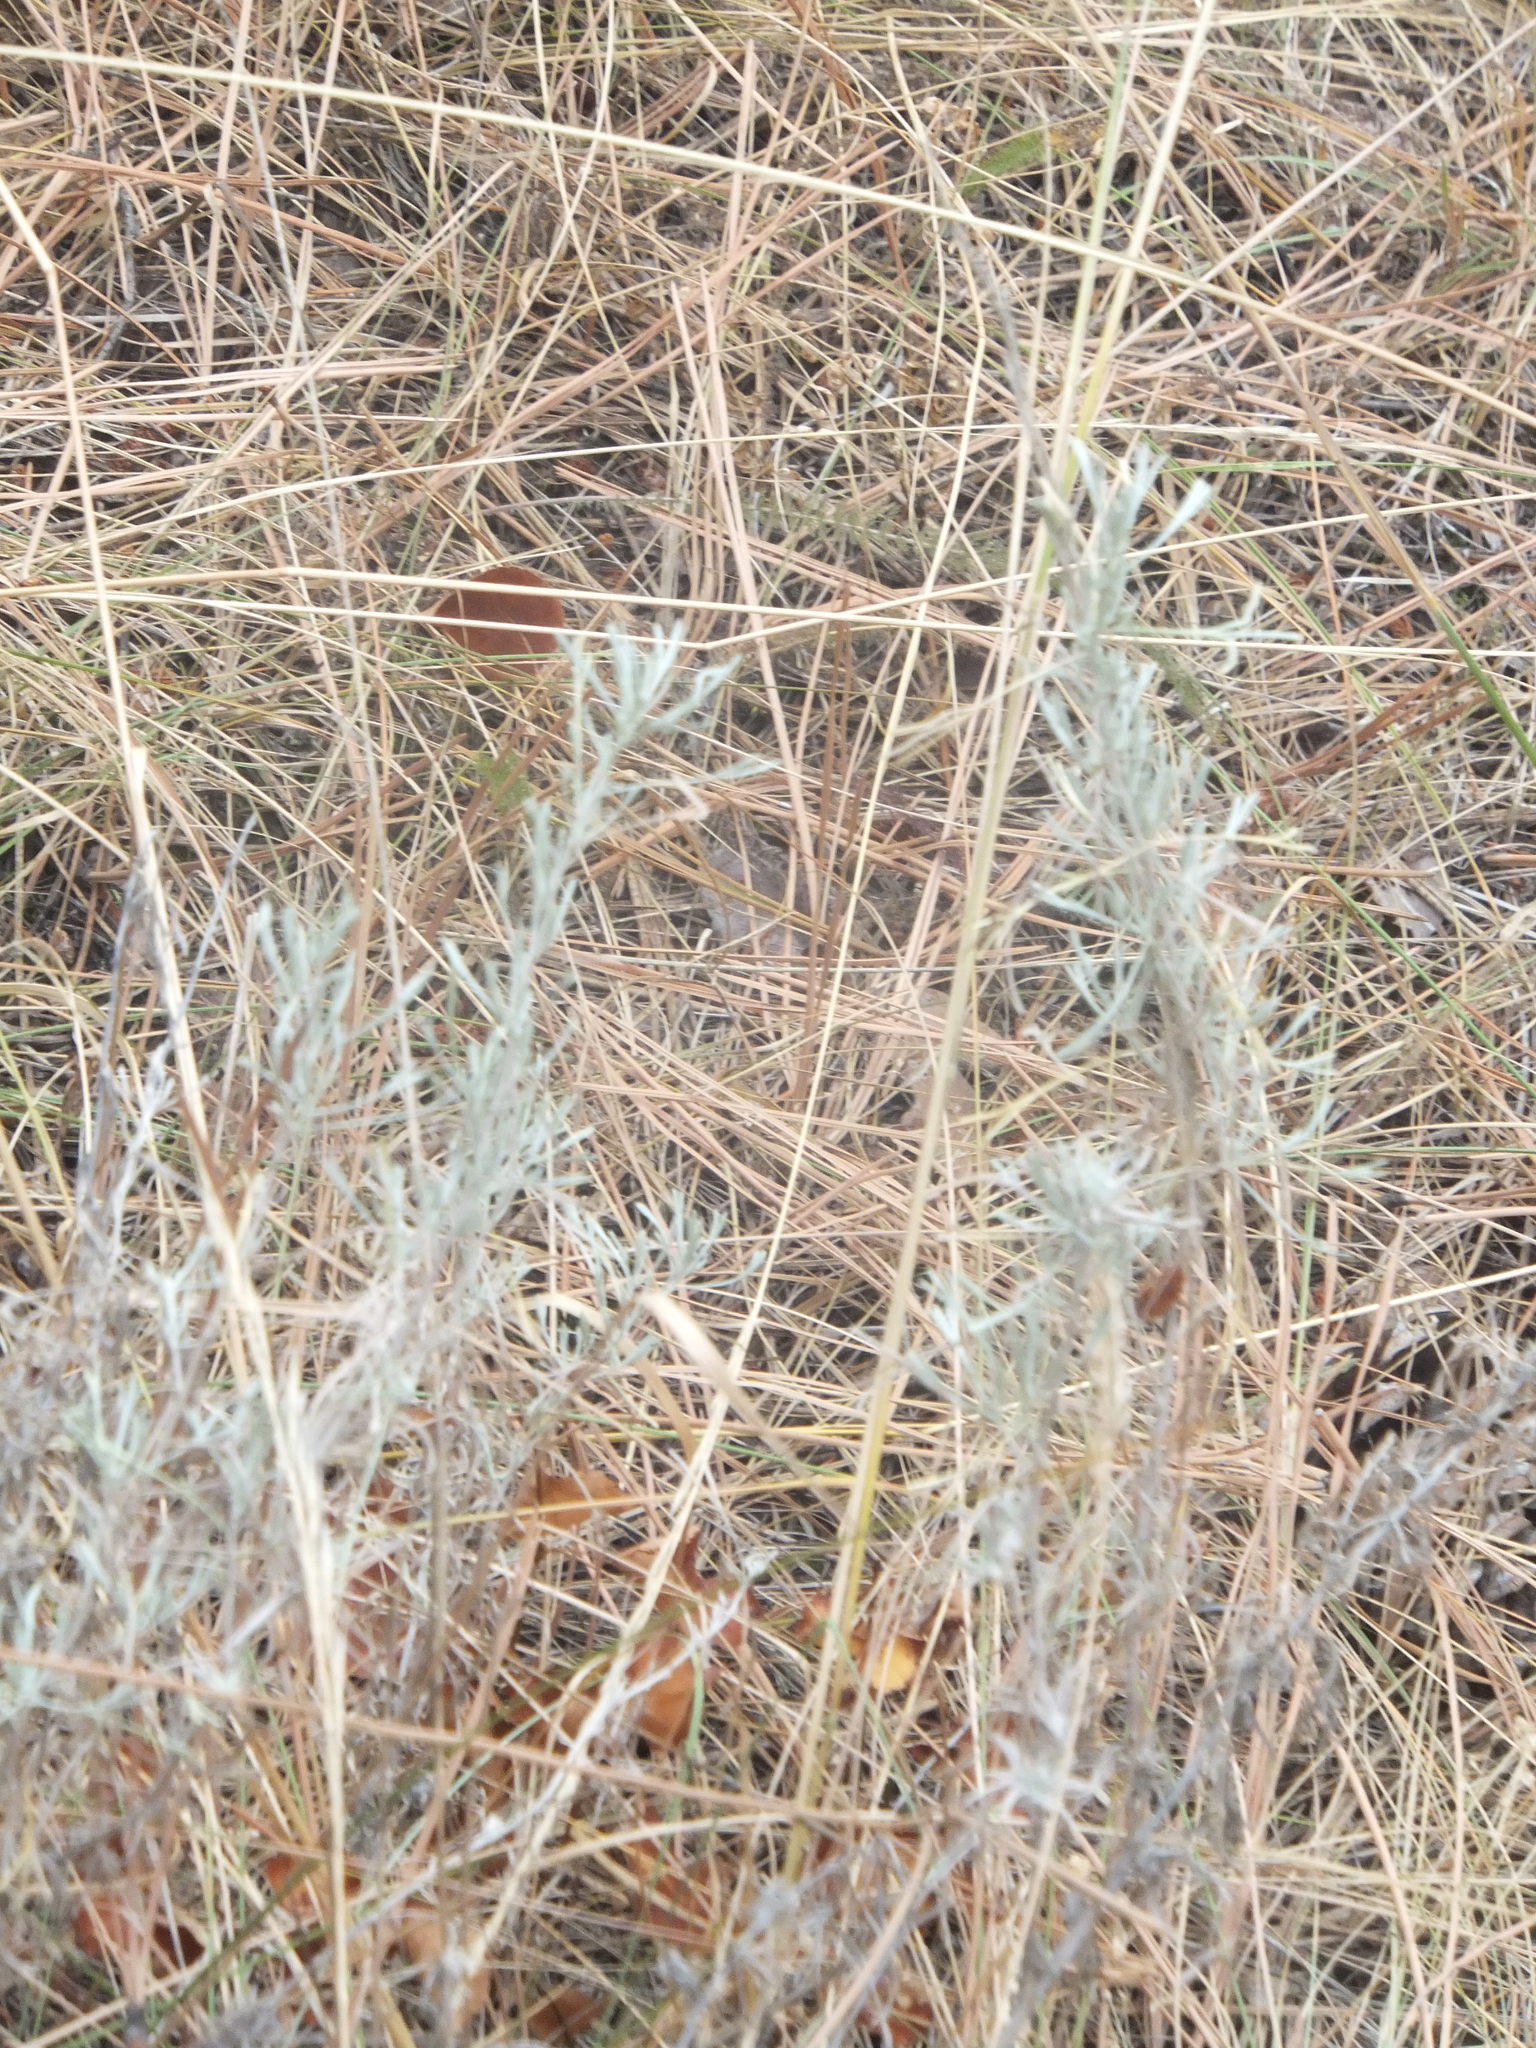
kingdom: Plantae
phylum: Tracheophyta
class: Magnoliopsida
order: Asterales
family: Asteraceae
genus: Artemisia
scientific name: Artemisia tripartita
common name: Three-tip sagebrush
